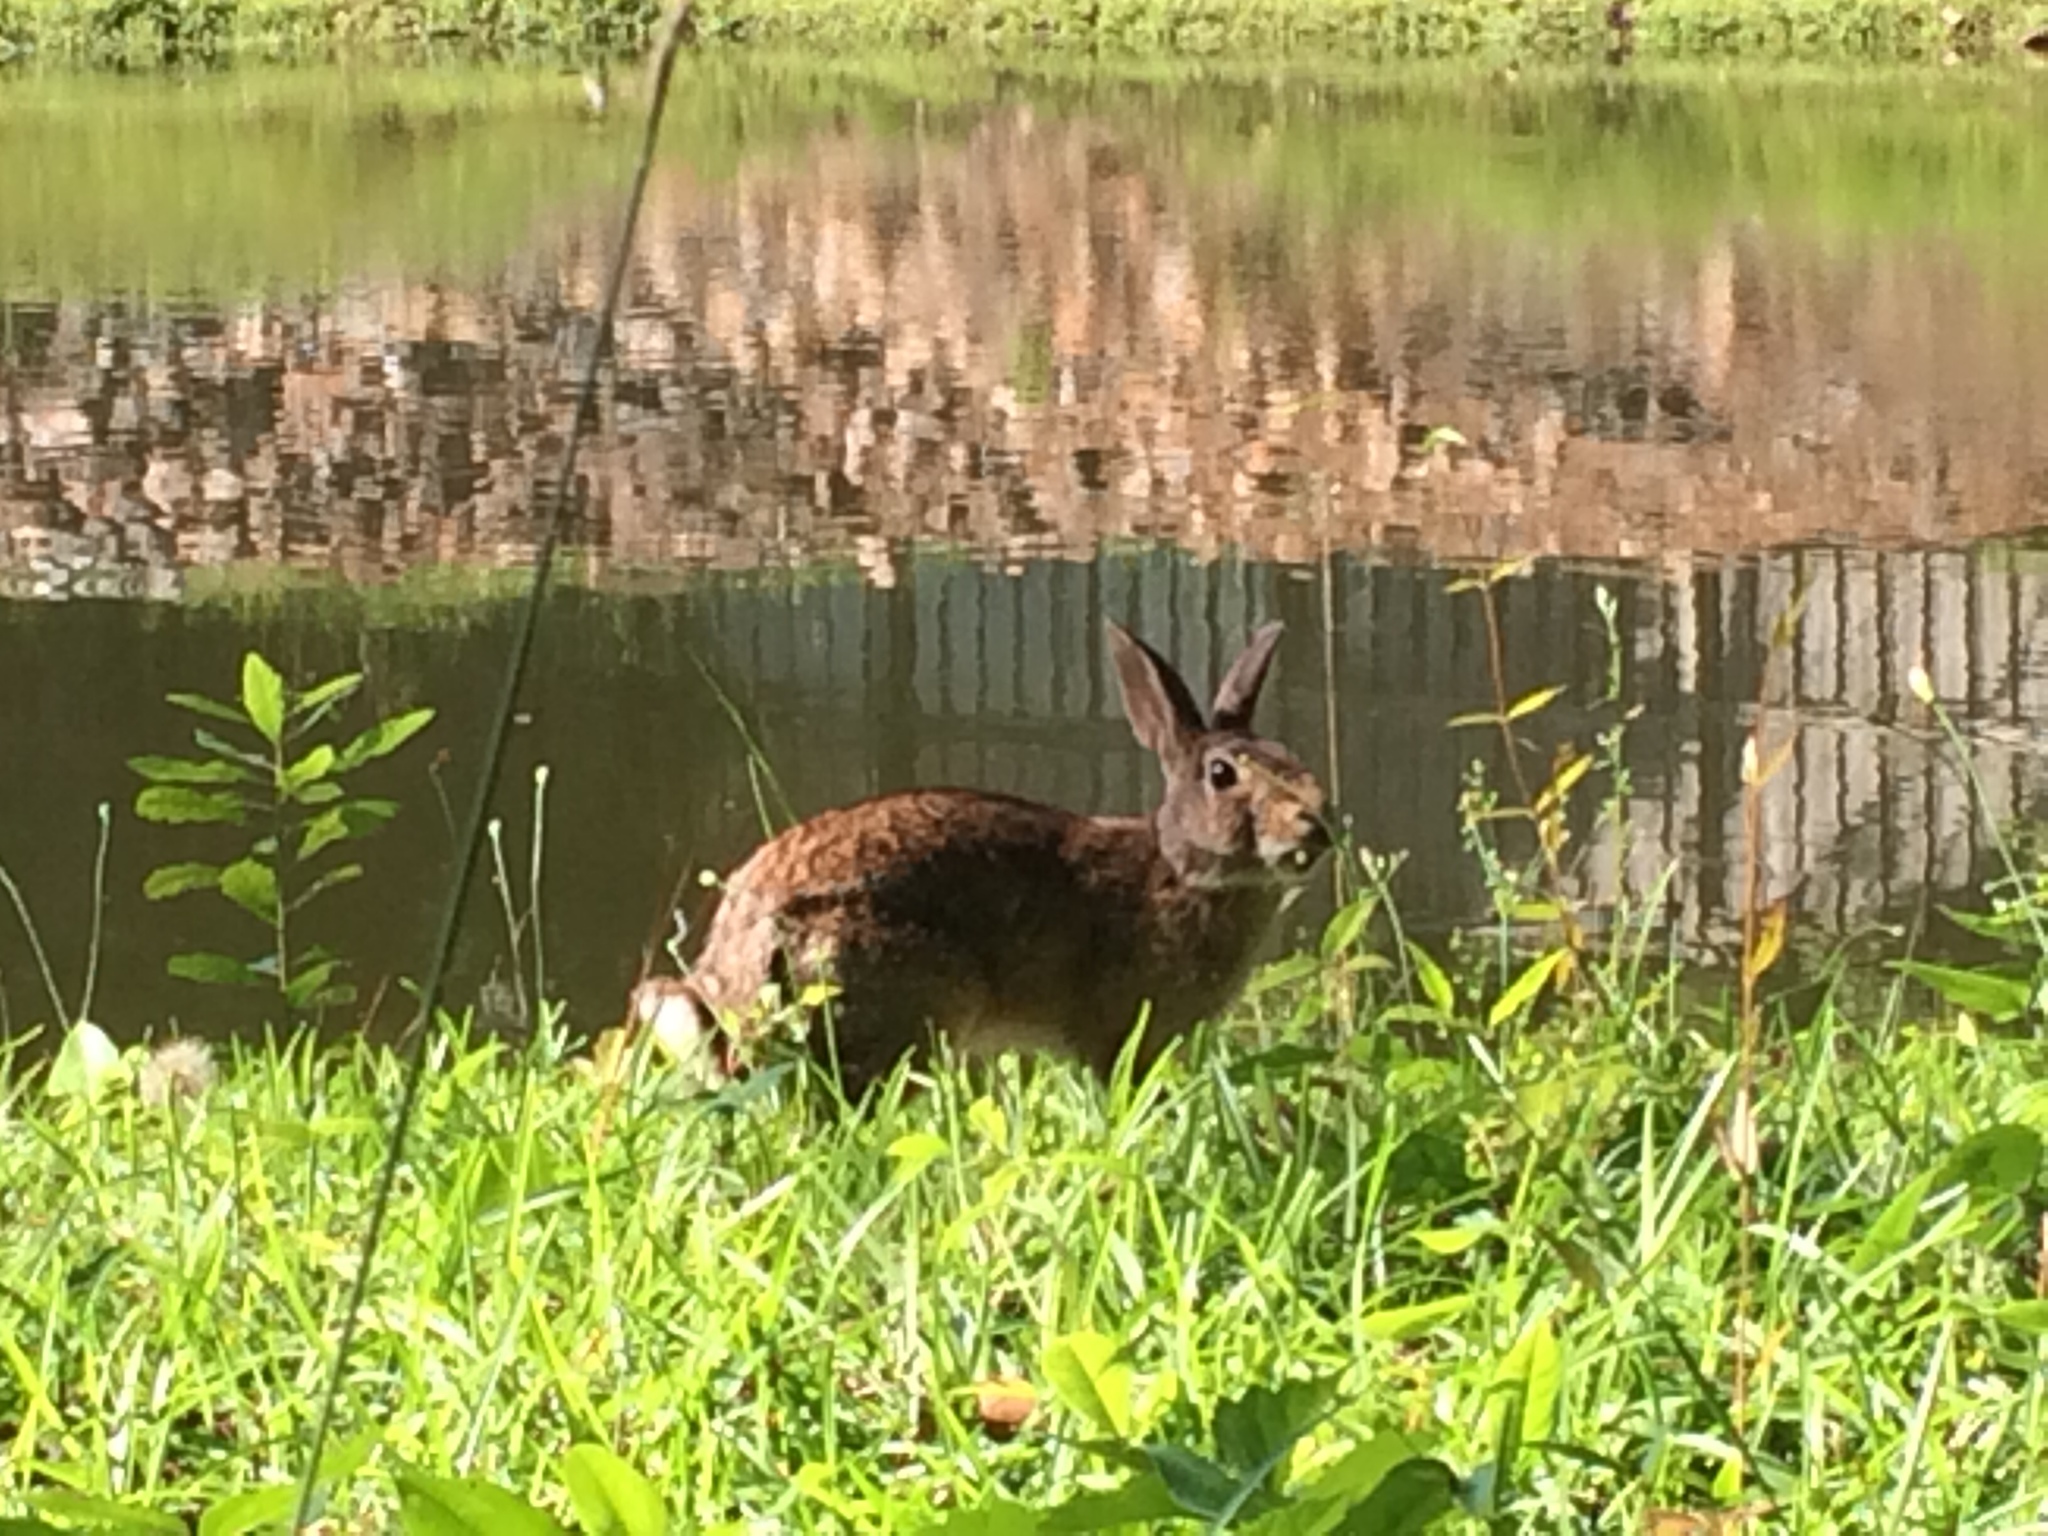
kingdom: Animalia
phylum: Chordata
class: Mammalia
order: Lagomorpha
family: Leporidae
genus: Sylvilagus
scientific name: Sylvilagus floridanus
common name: Eastern cottontail
